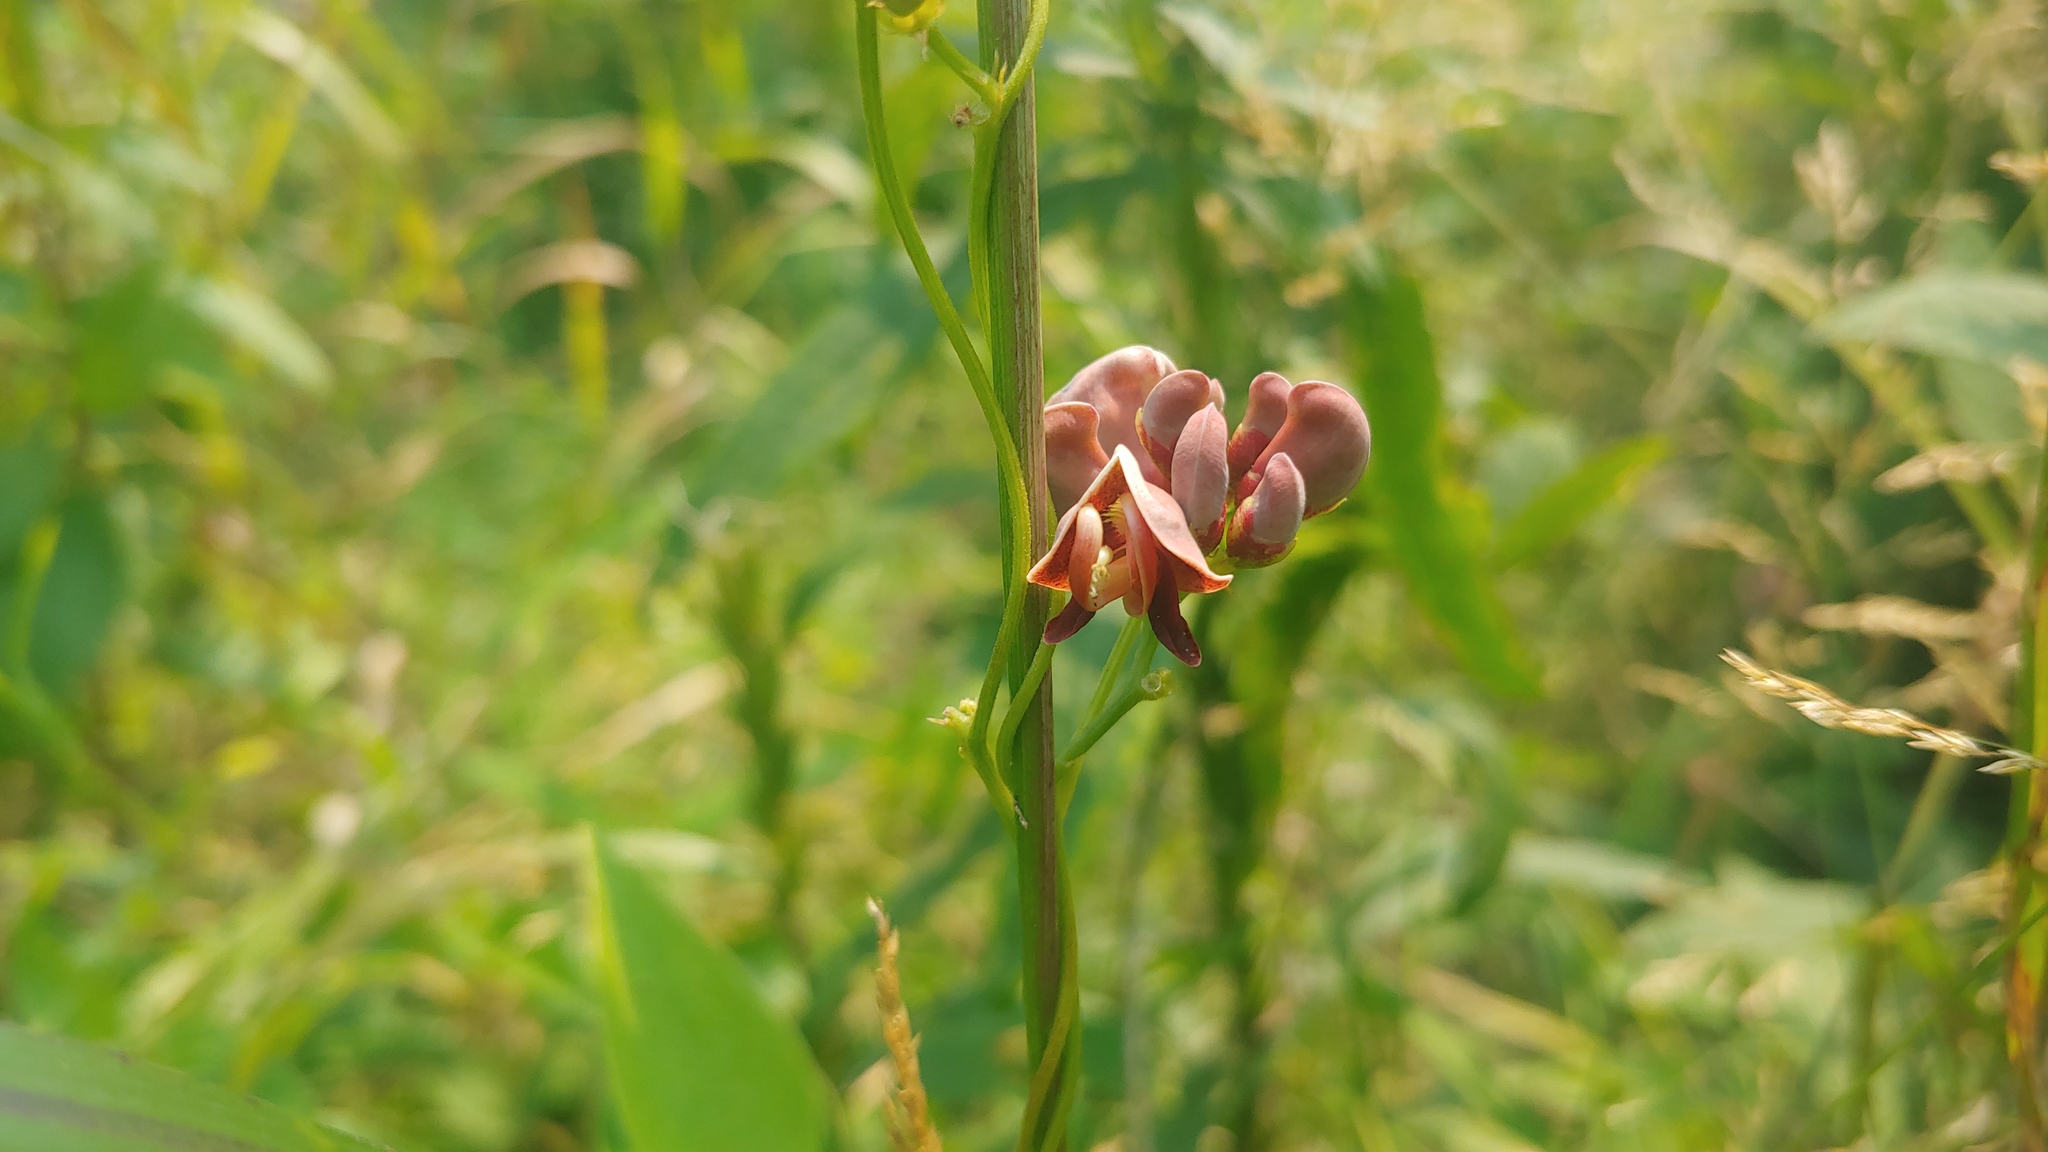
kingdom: Plantae
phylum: Tracheophyta
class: Magnoliopsida
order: Fabales
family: Fabaceae
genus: Apios
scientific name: Apios americana
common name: American potato-bean
